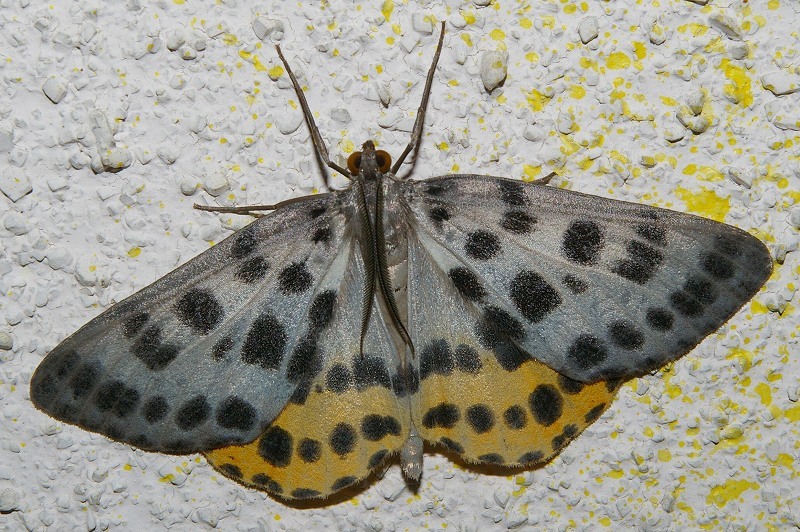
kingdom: Animalia
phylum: Arthropoda
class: Insecta
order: Lepidoptera
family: Geometridae
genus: Arichanna
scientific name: Arichanna
